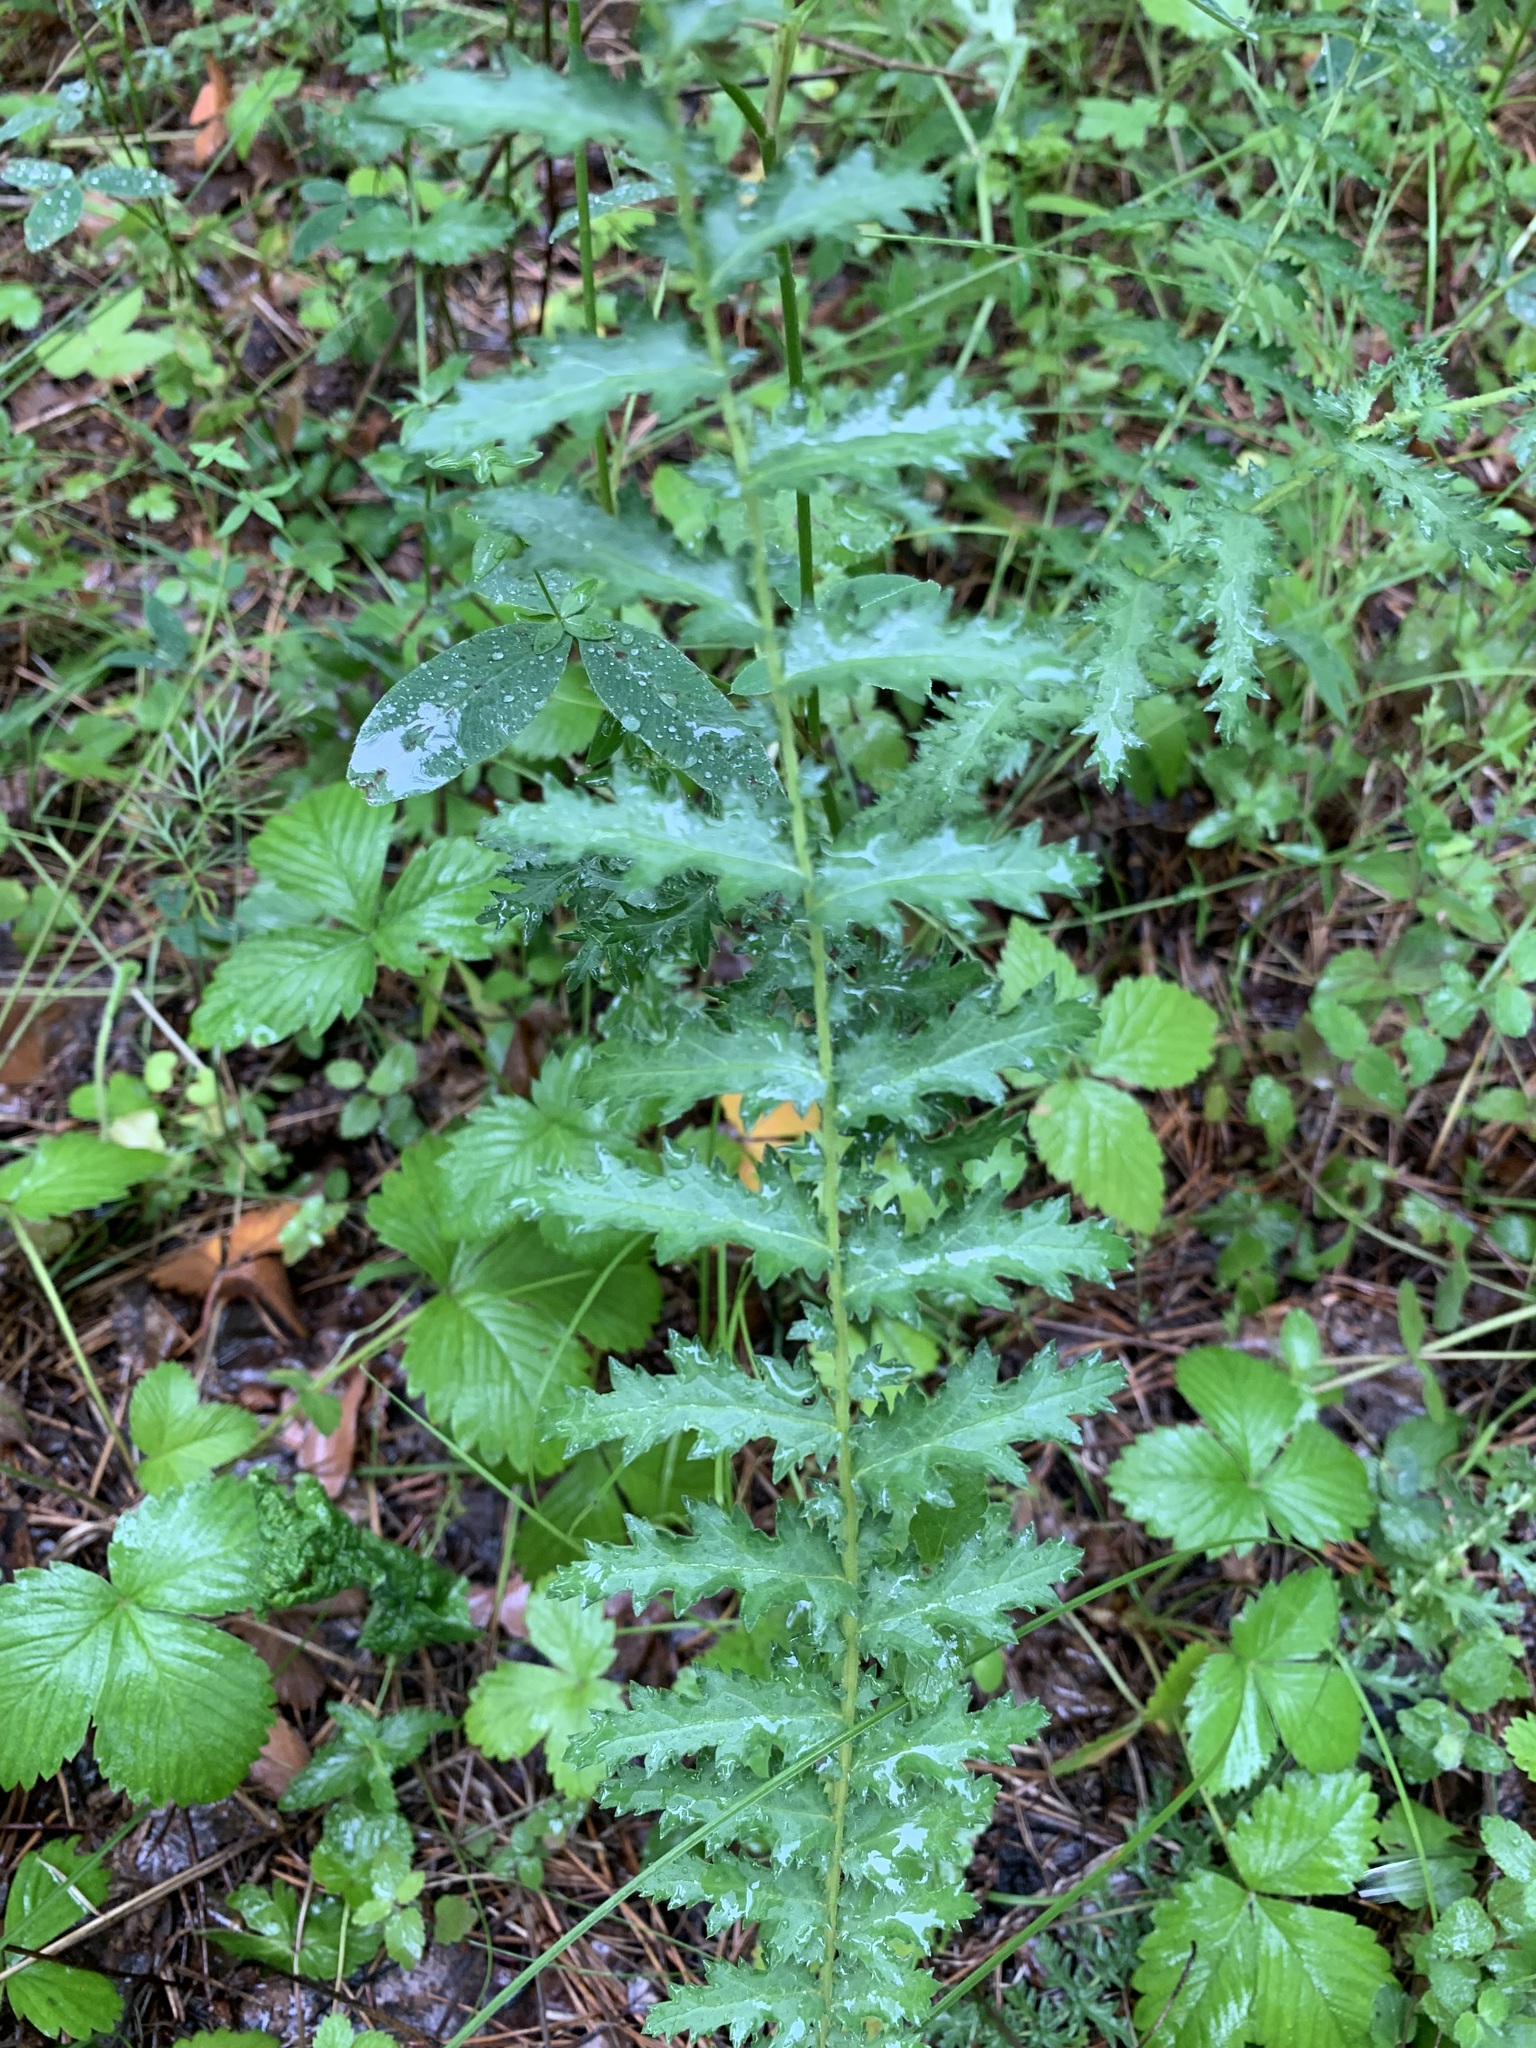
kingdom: Plantae
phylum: Tracheophyta
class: Magnoliopsida
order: Rosales
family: Rosaceae
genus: Filipendula
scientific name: Filipendula vulgaris
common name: Dropwort
